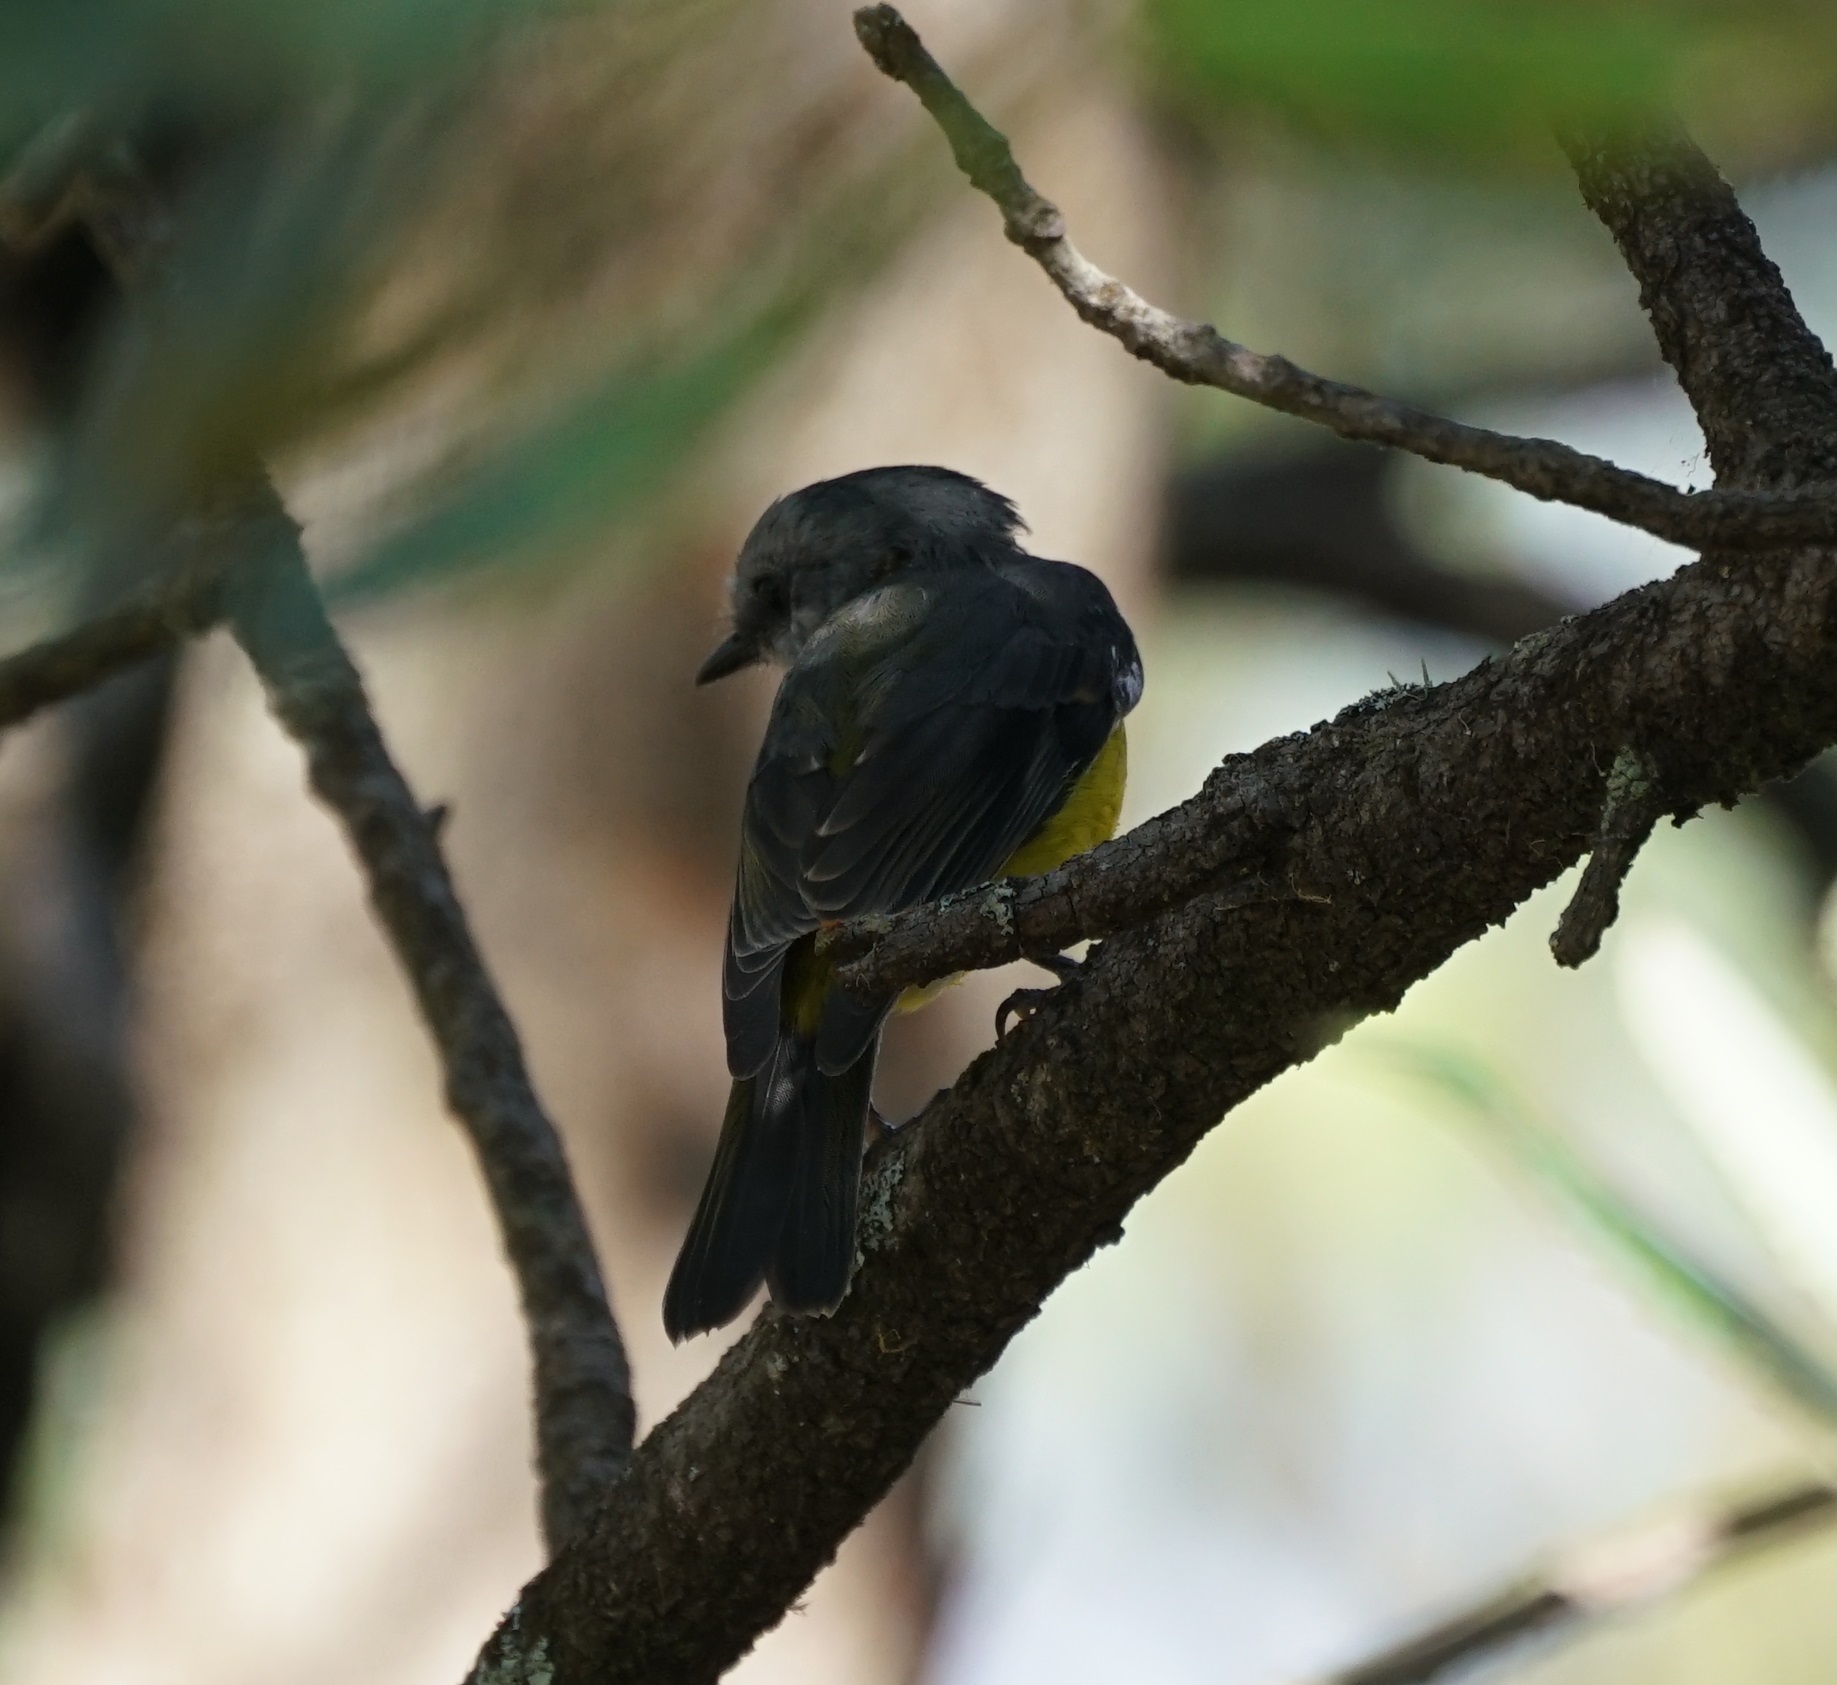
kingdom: Animalia
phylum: Chordata
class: Aves
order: Passeriformes
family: Petroicidae
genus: Eopsaltria
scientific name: Eopsaltria australis
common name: Eastern yellow robin
